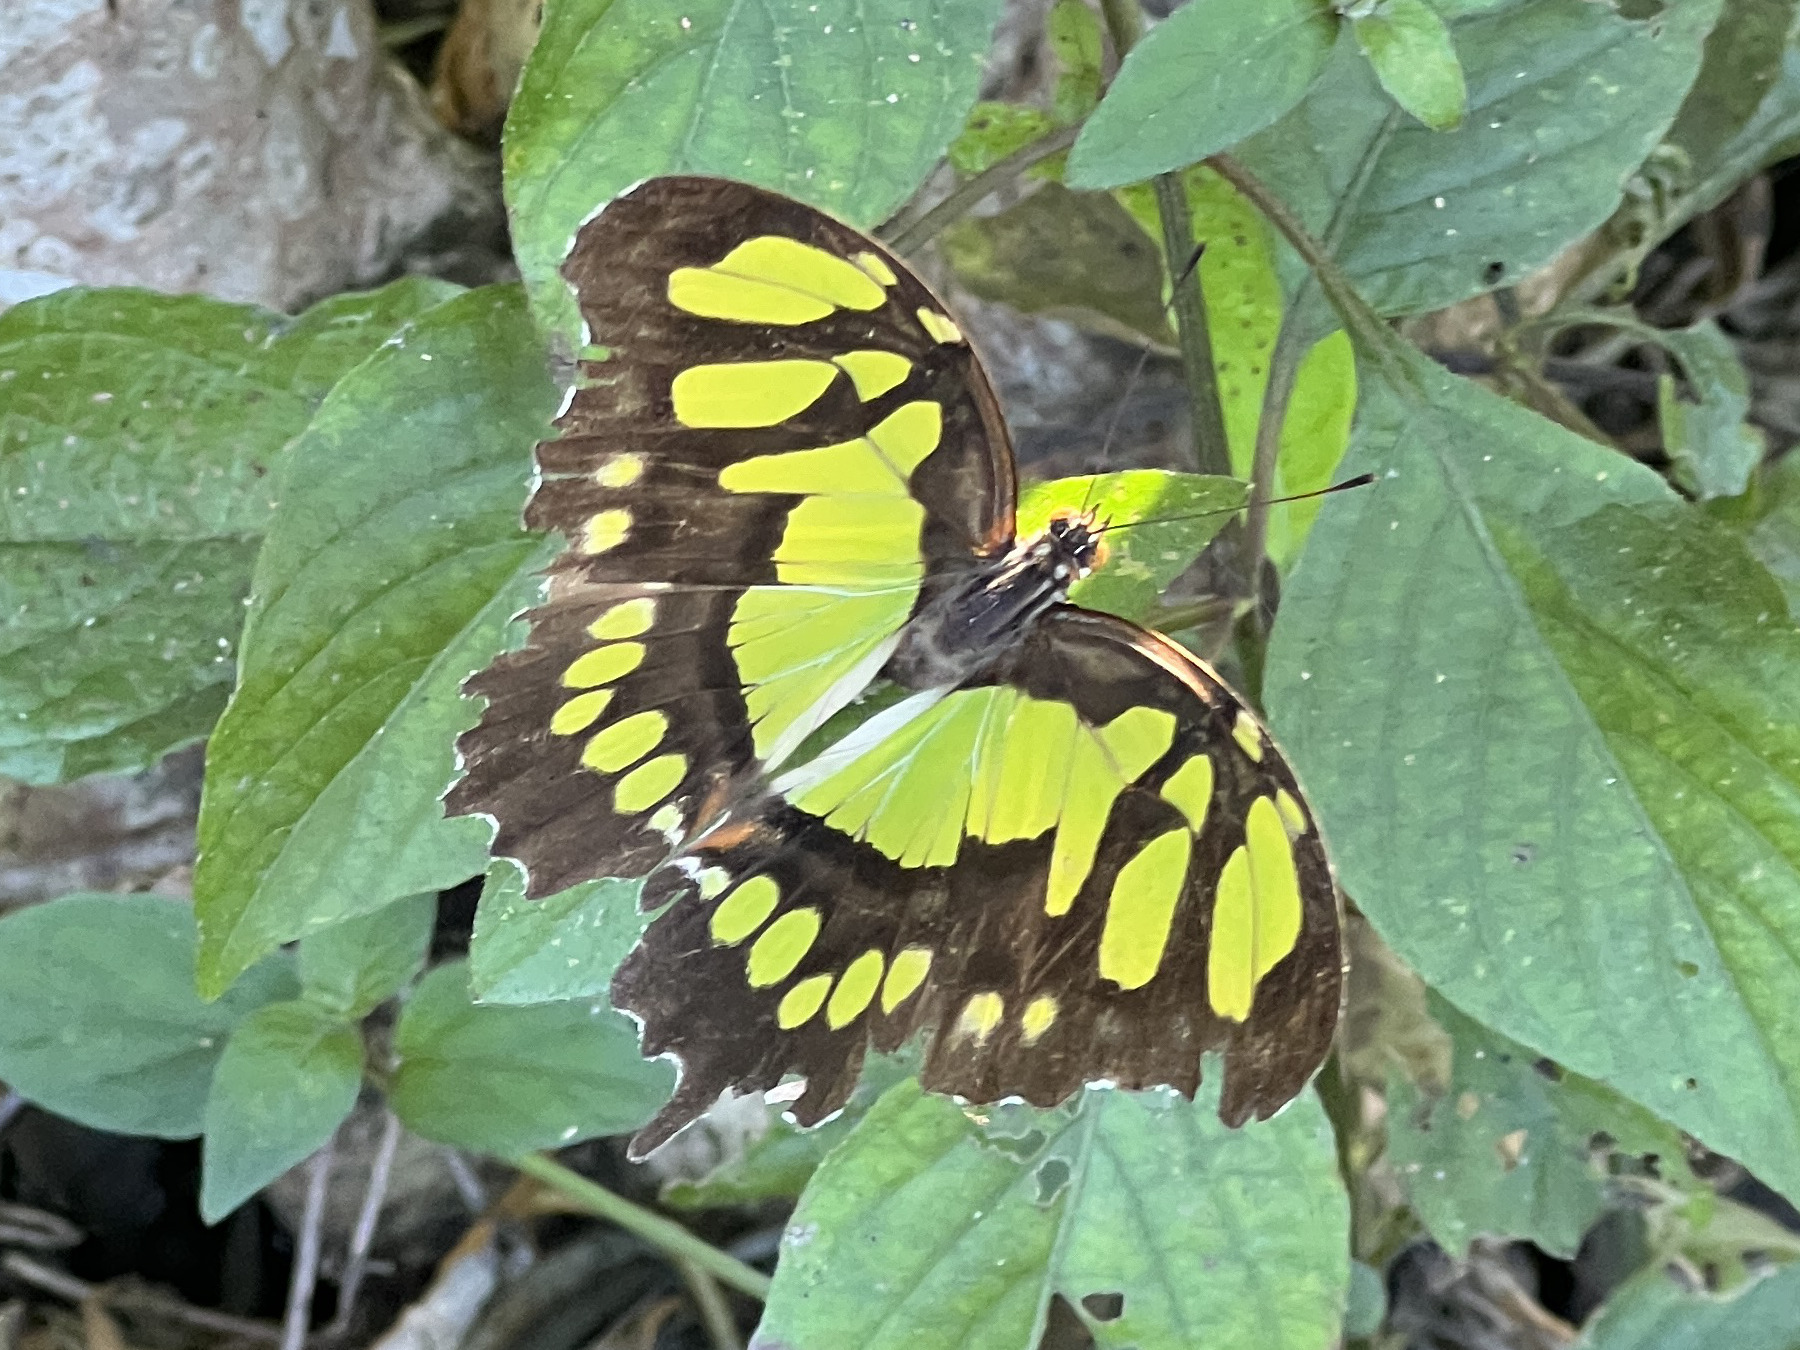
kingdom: Animalia
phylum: Arthropoda
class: Insecta
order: Lepidoptera
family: Nymphalidae
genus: Siproeta
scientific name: Siproeta stelenes
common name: Malachite
